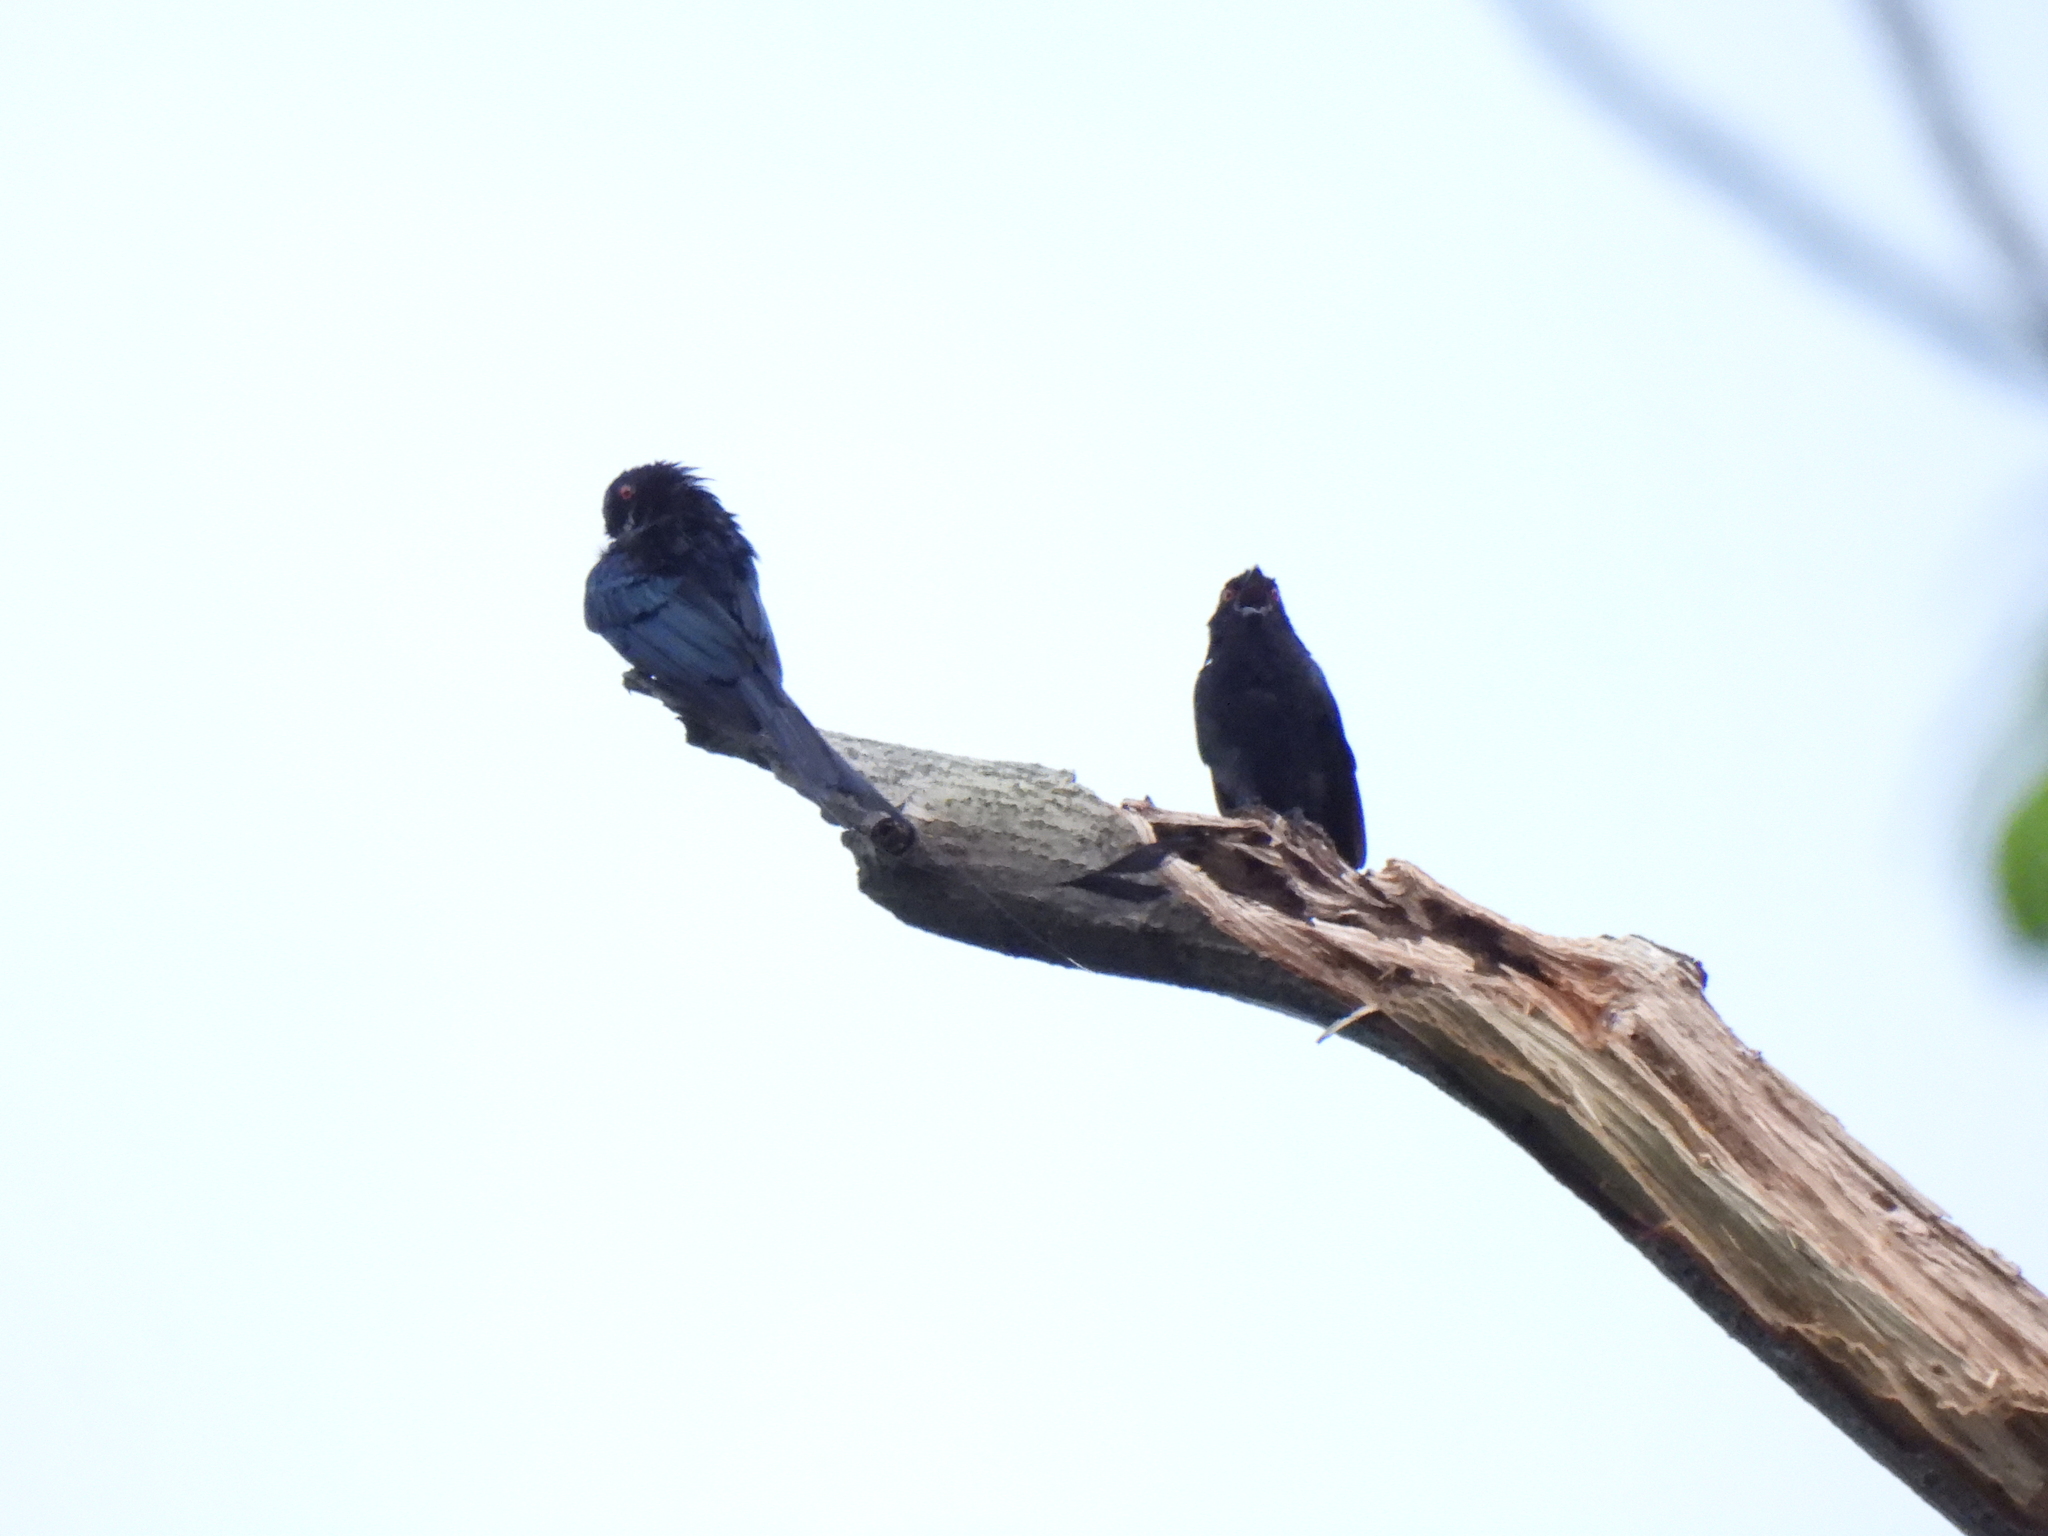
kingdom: Animalia
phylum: Chordata
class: Aves
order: Passeriformes
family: Dicruridae
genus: Dicrurus
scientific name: Dicrurus paradiseus
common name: Greater racket-tailed drongo
